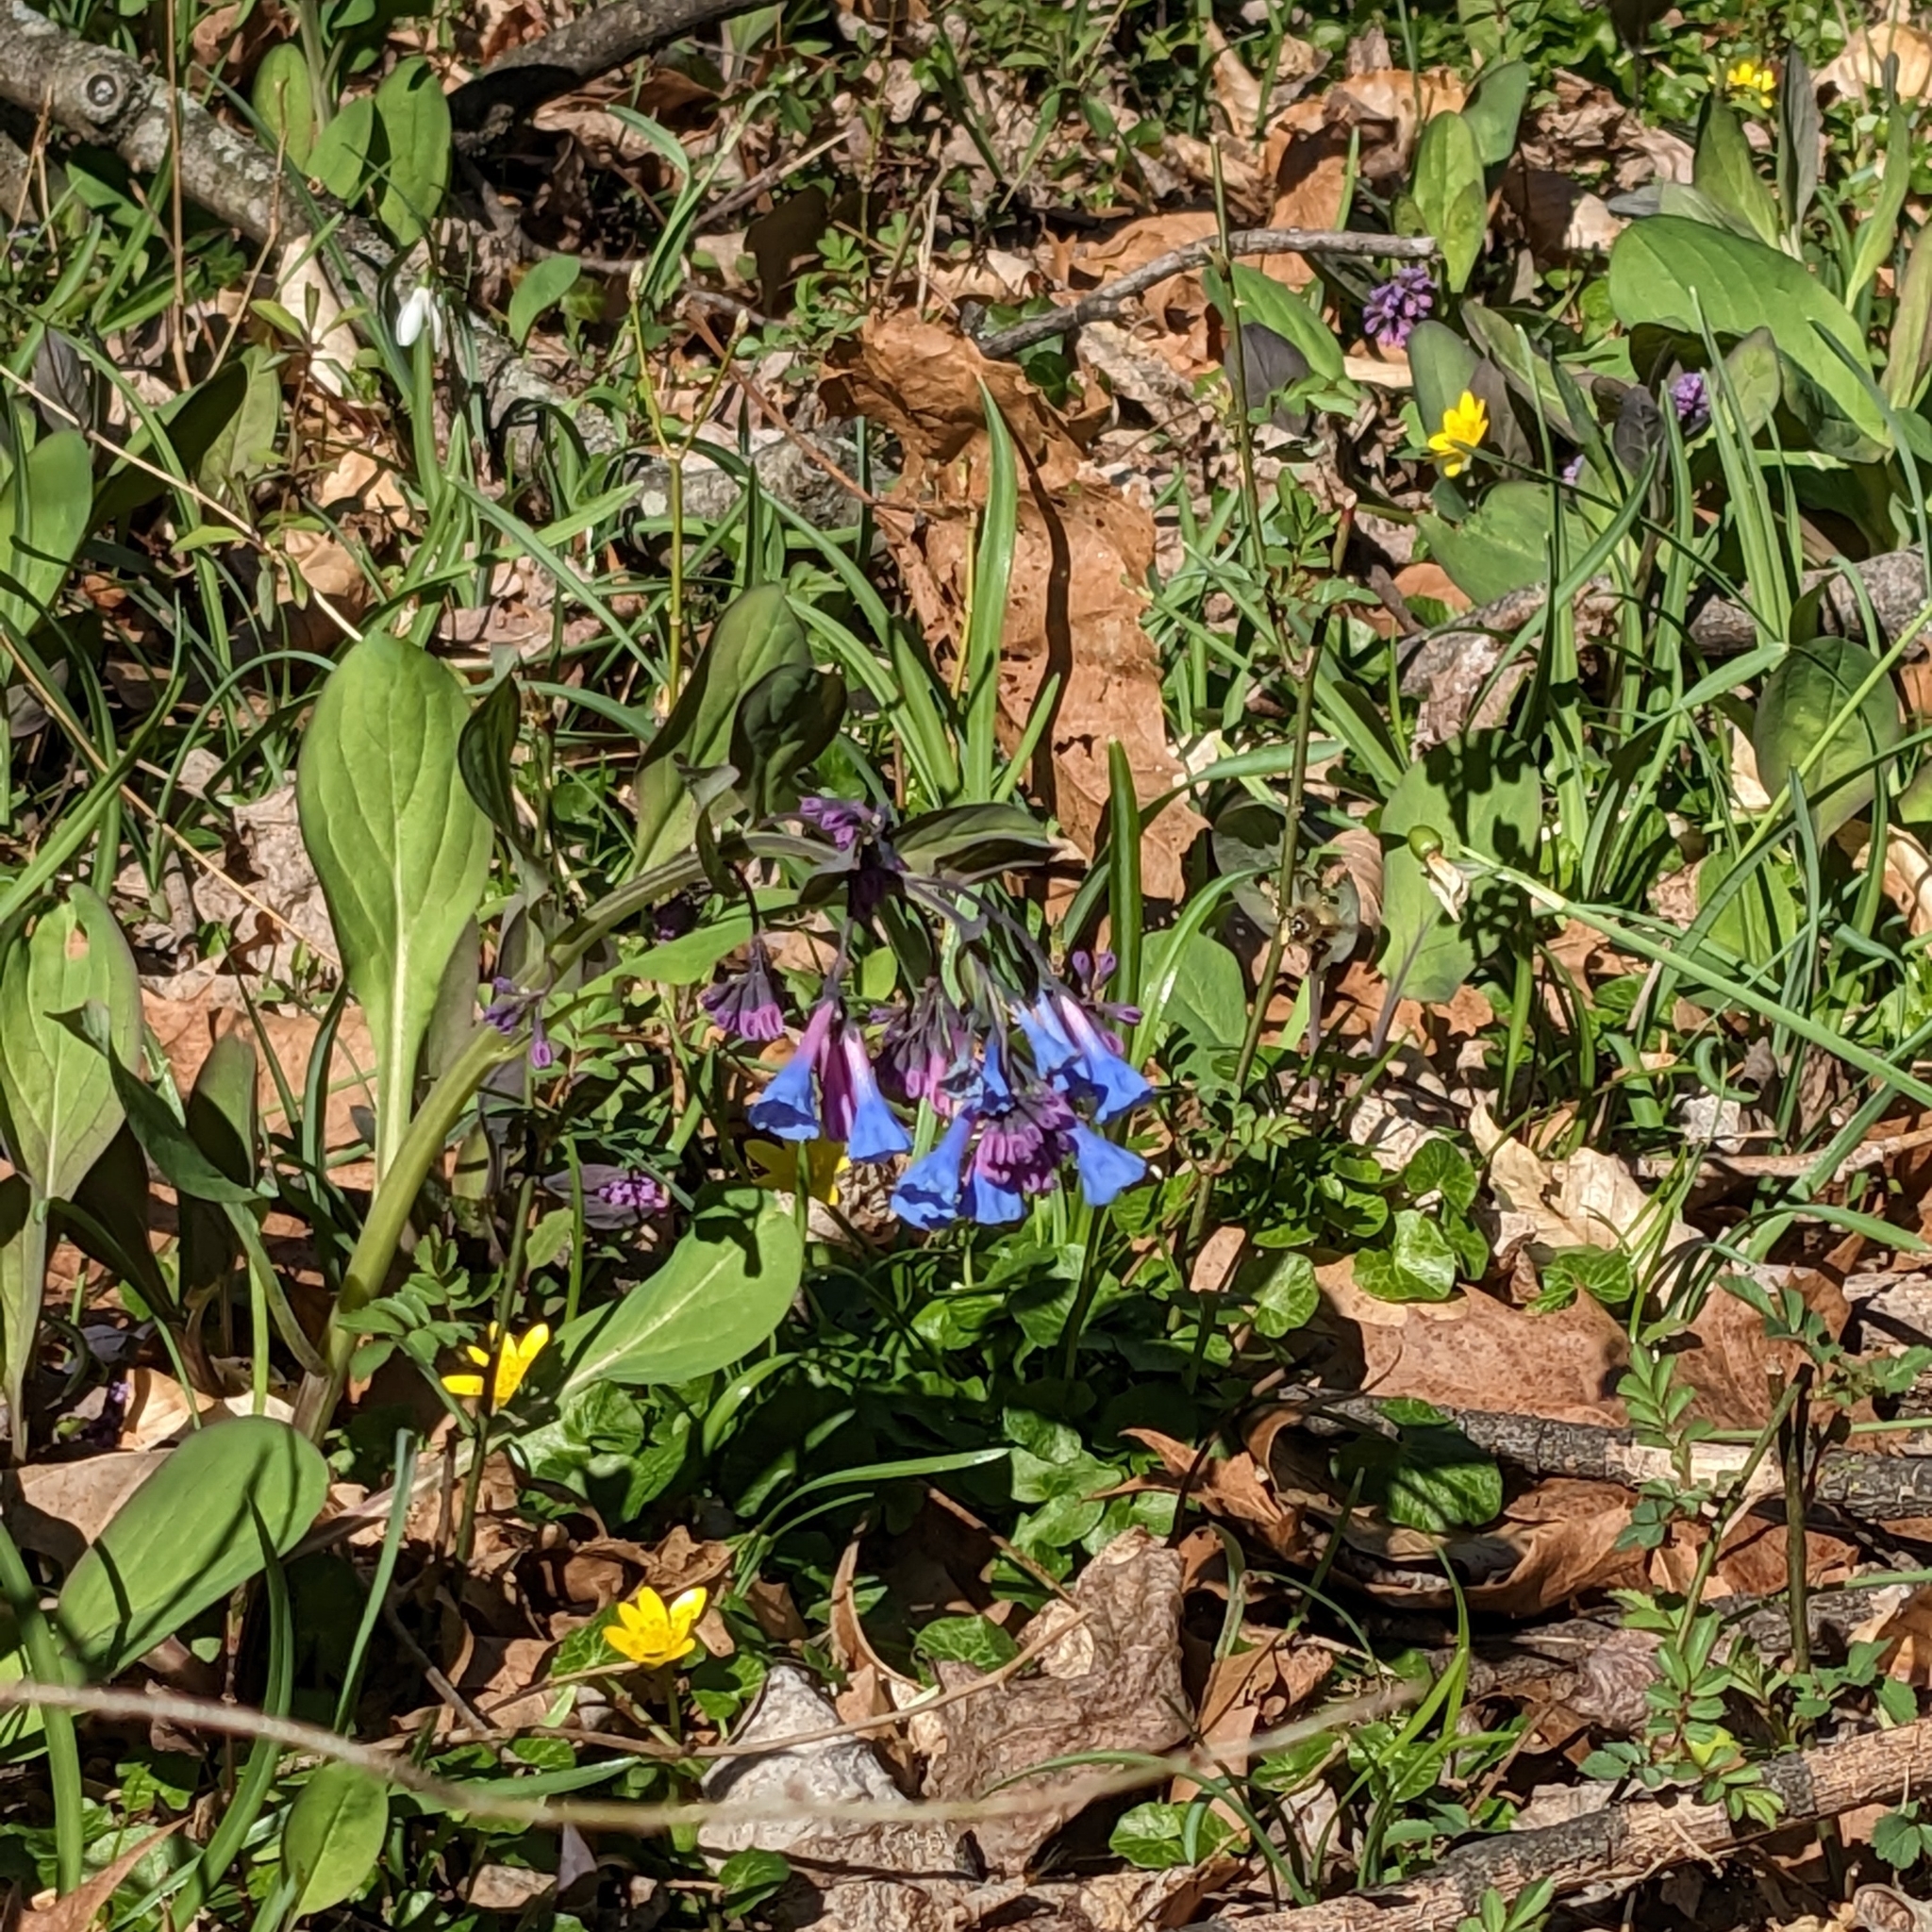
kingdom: Plantae
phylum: Tracheophyta
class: Magnoliopsida
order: Boraginales
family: Boraginaceae
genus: Mertensia
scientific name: Mertensia virginica
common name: Virginia bluebells
